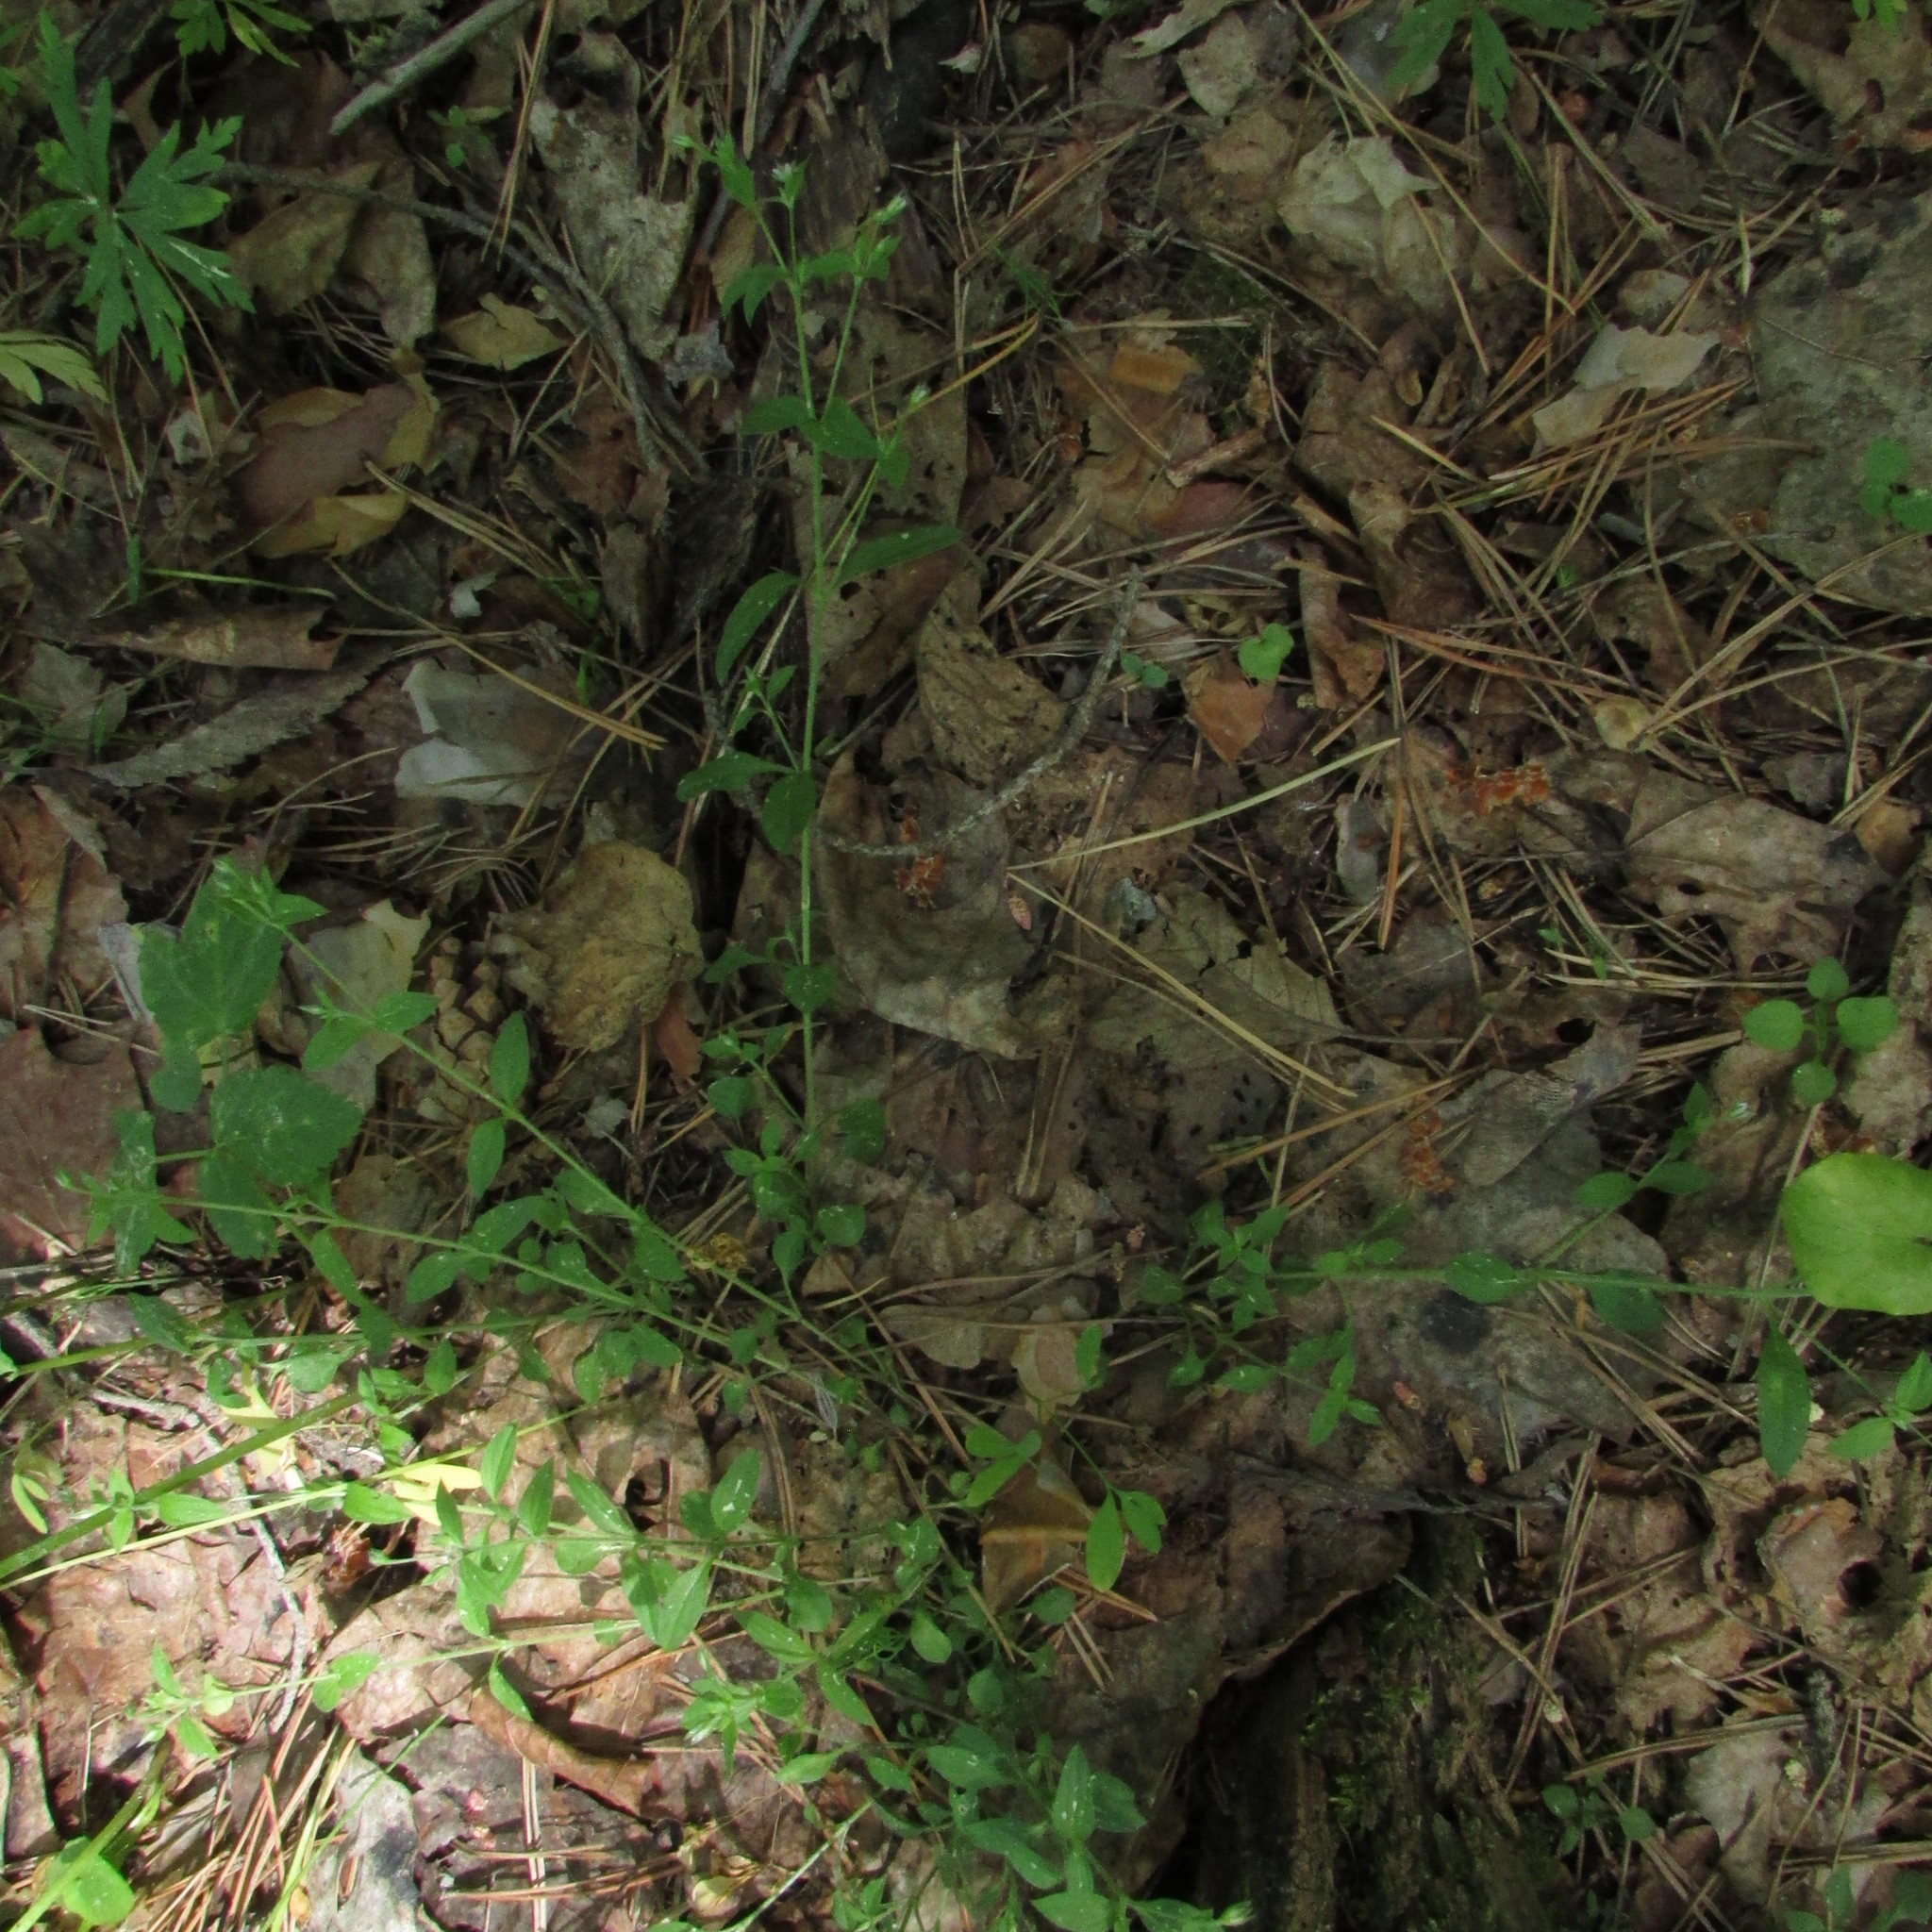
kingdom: Plantae
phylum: Tracheophyta
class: Magnoliopsida
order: Caryophyllales
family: Caryophyllaceae
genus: Moehringia
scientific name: Moehringia trinervia
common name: Three-nerved sandwort
